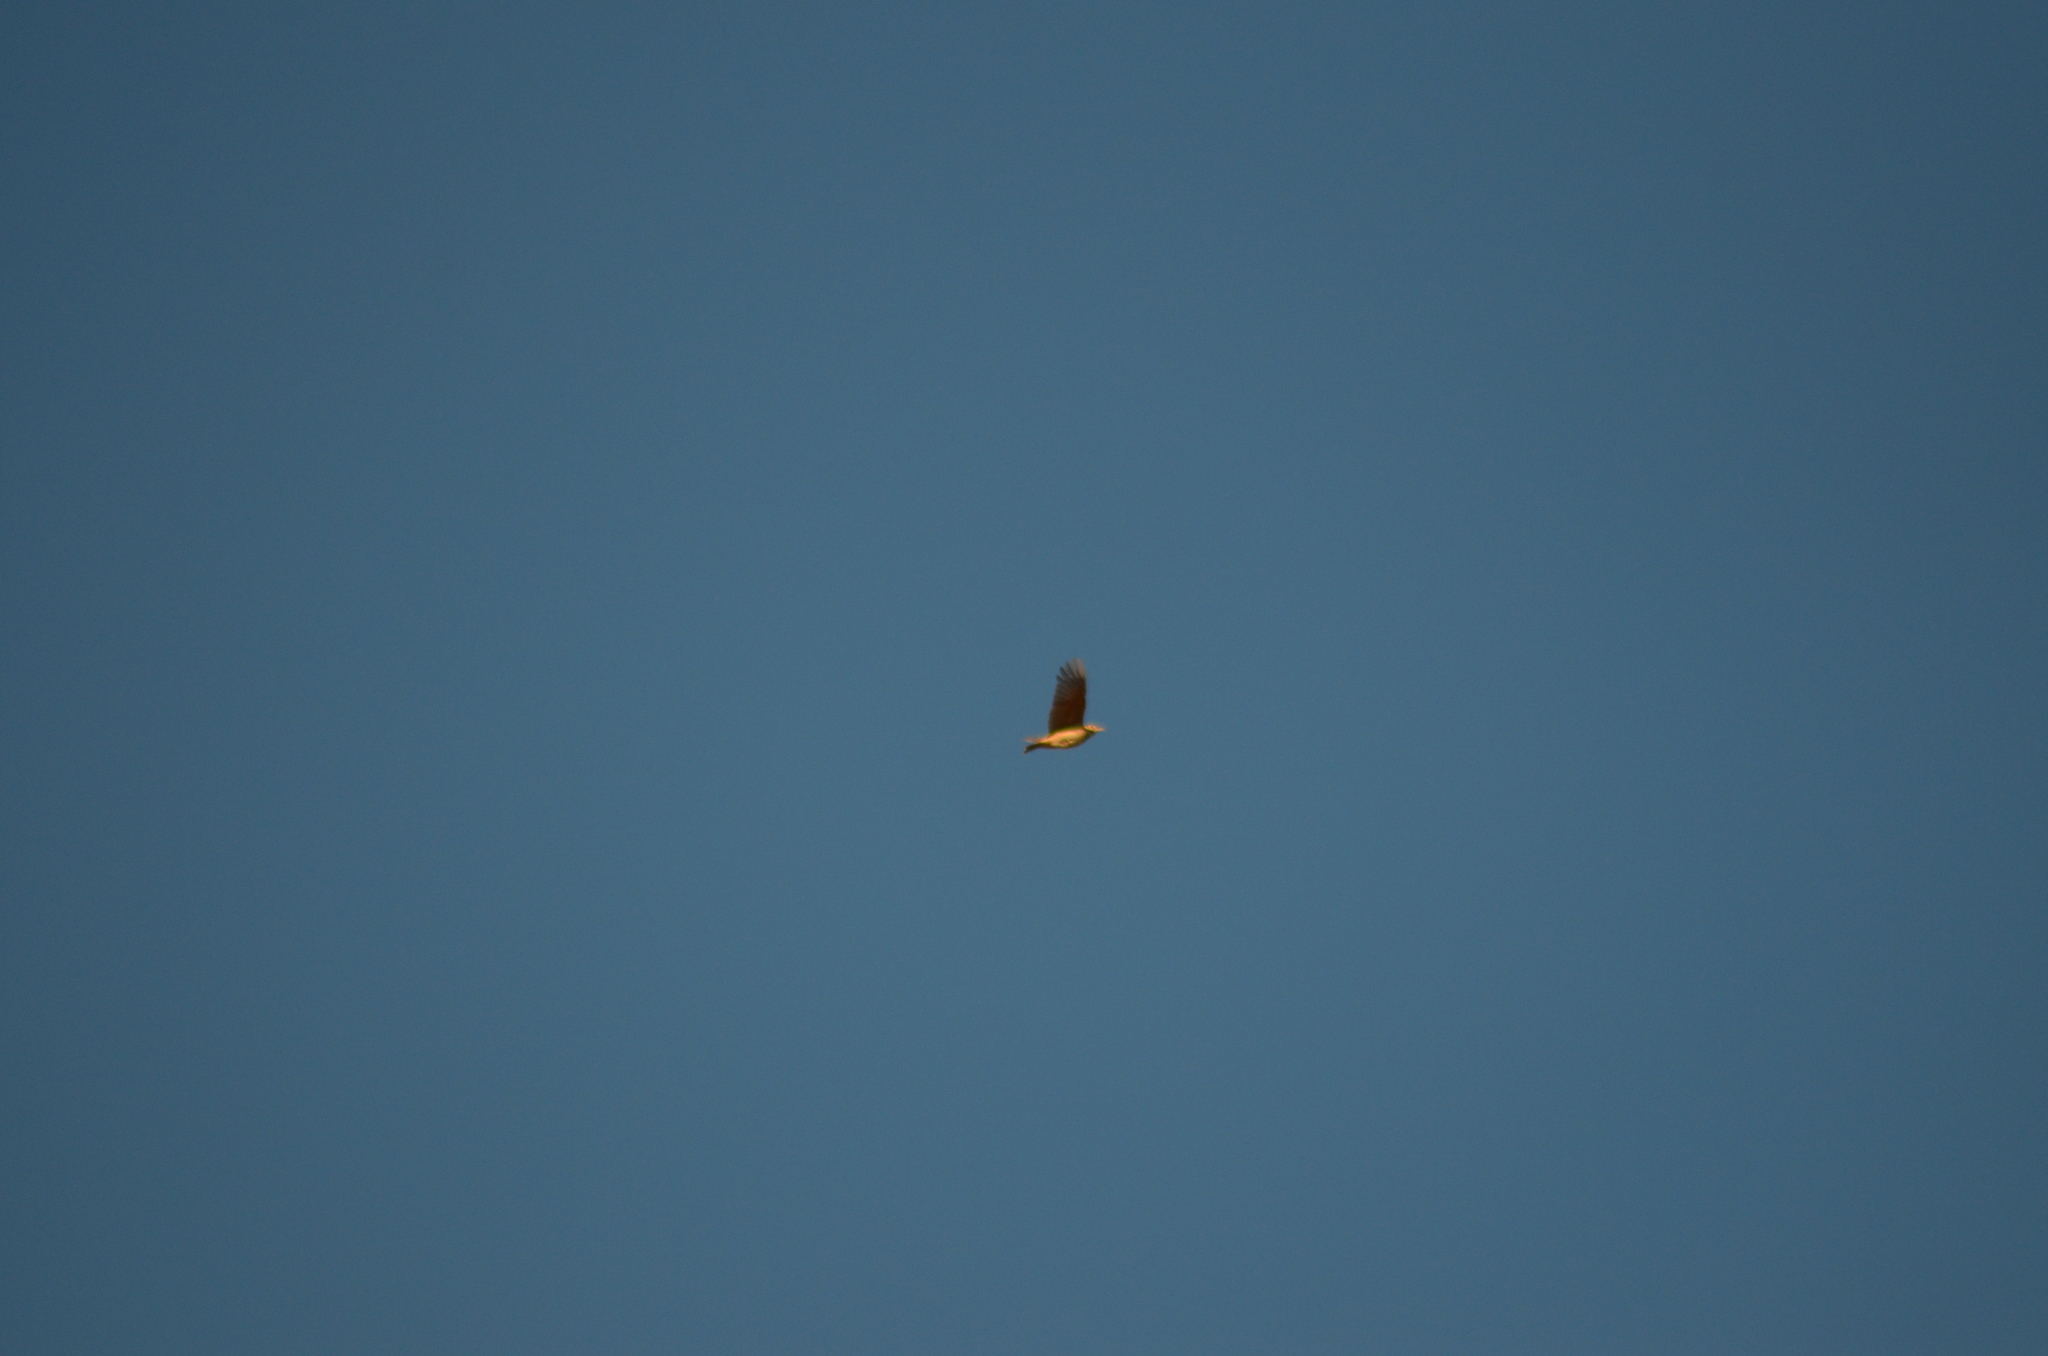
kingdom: Animalia
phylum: Chordata
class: Aves
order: Passeriformes
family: Alaudidae
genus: Galerida
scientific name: Galerida cristata
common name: Crested lark
